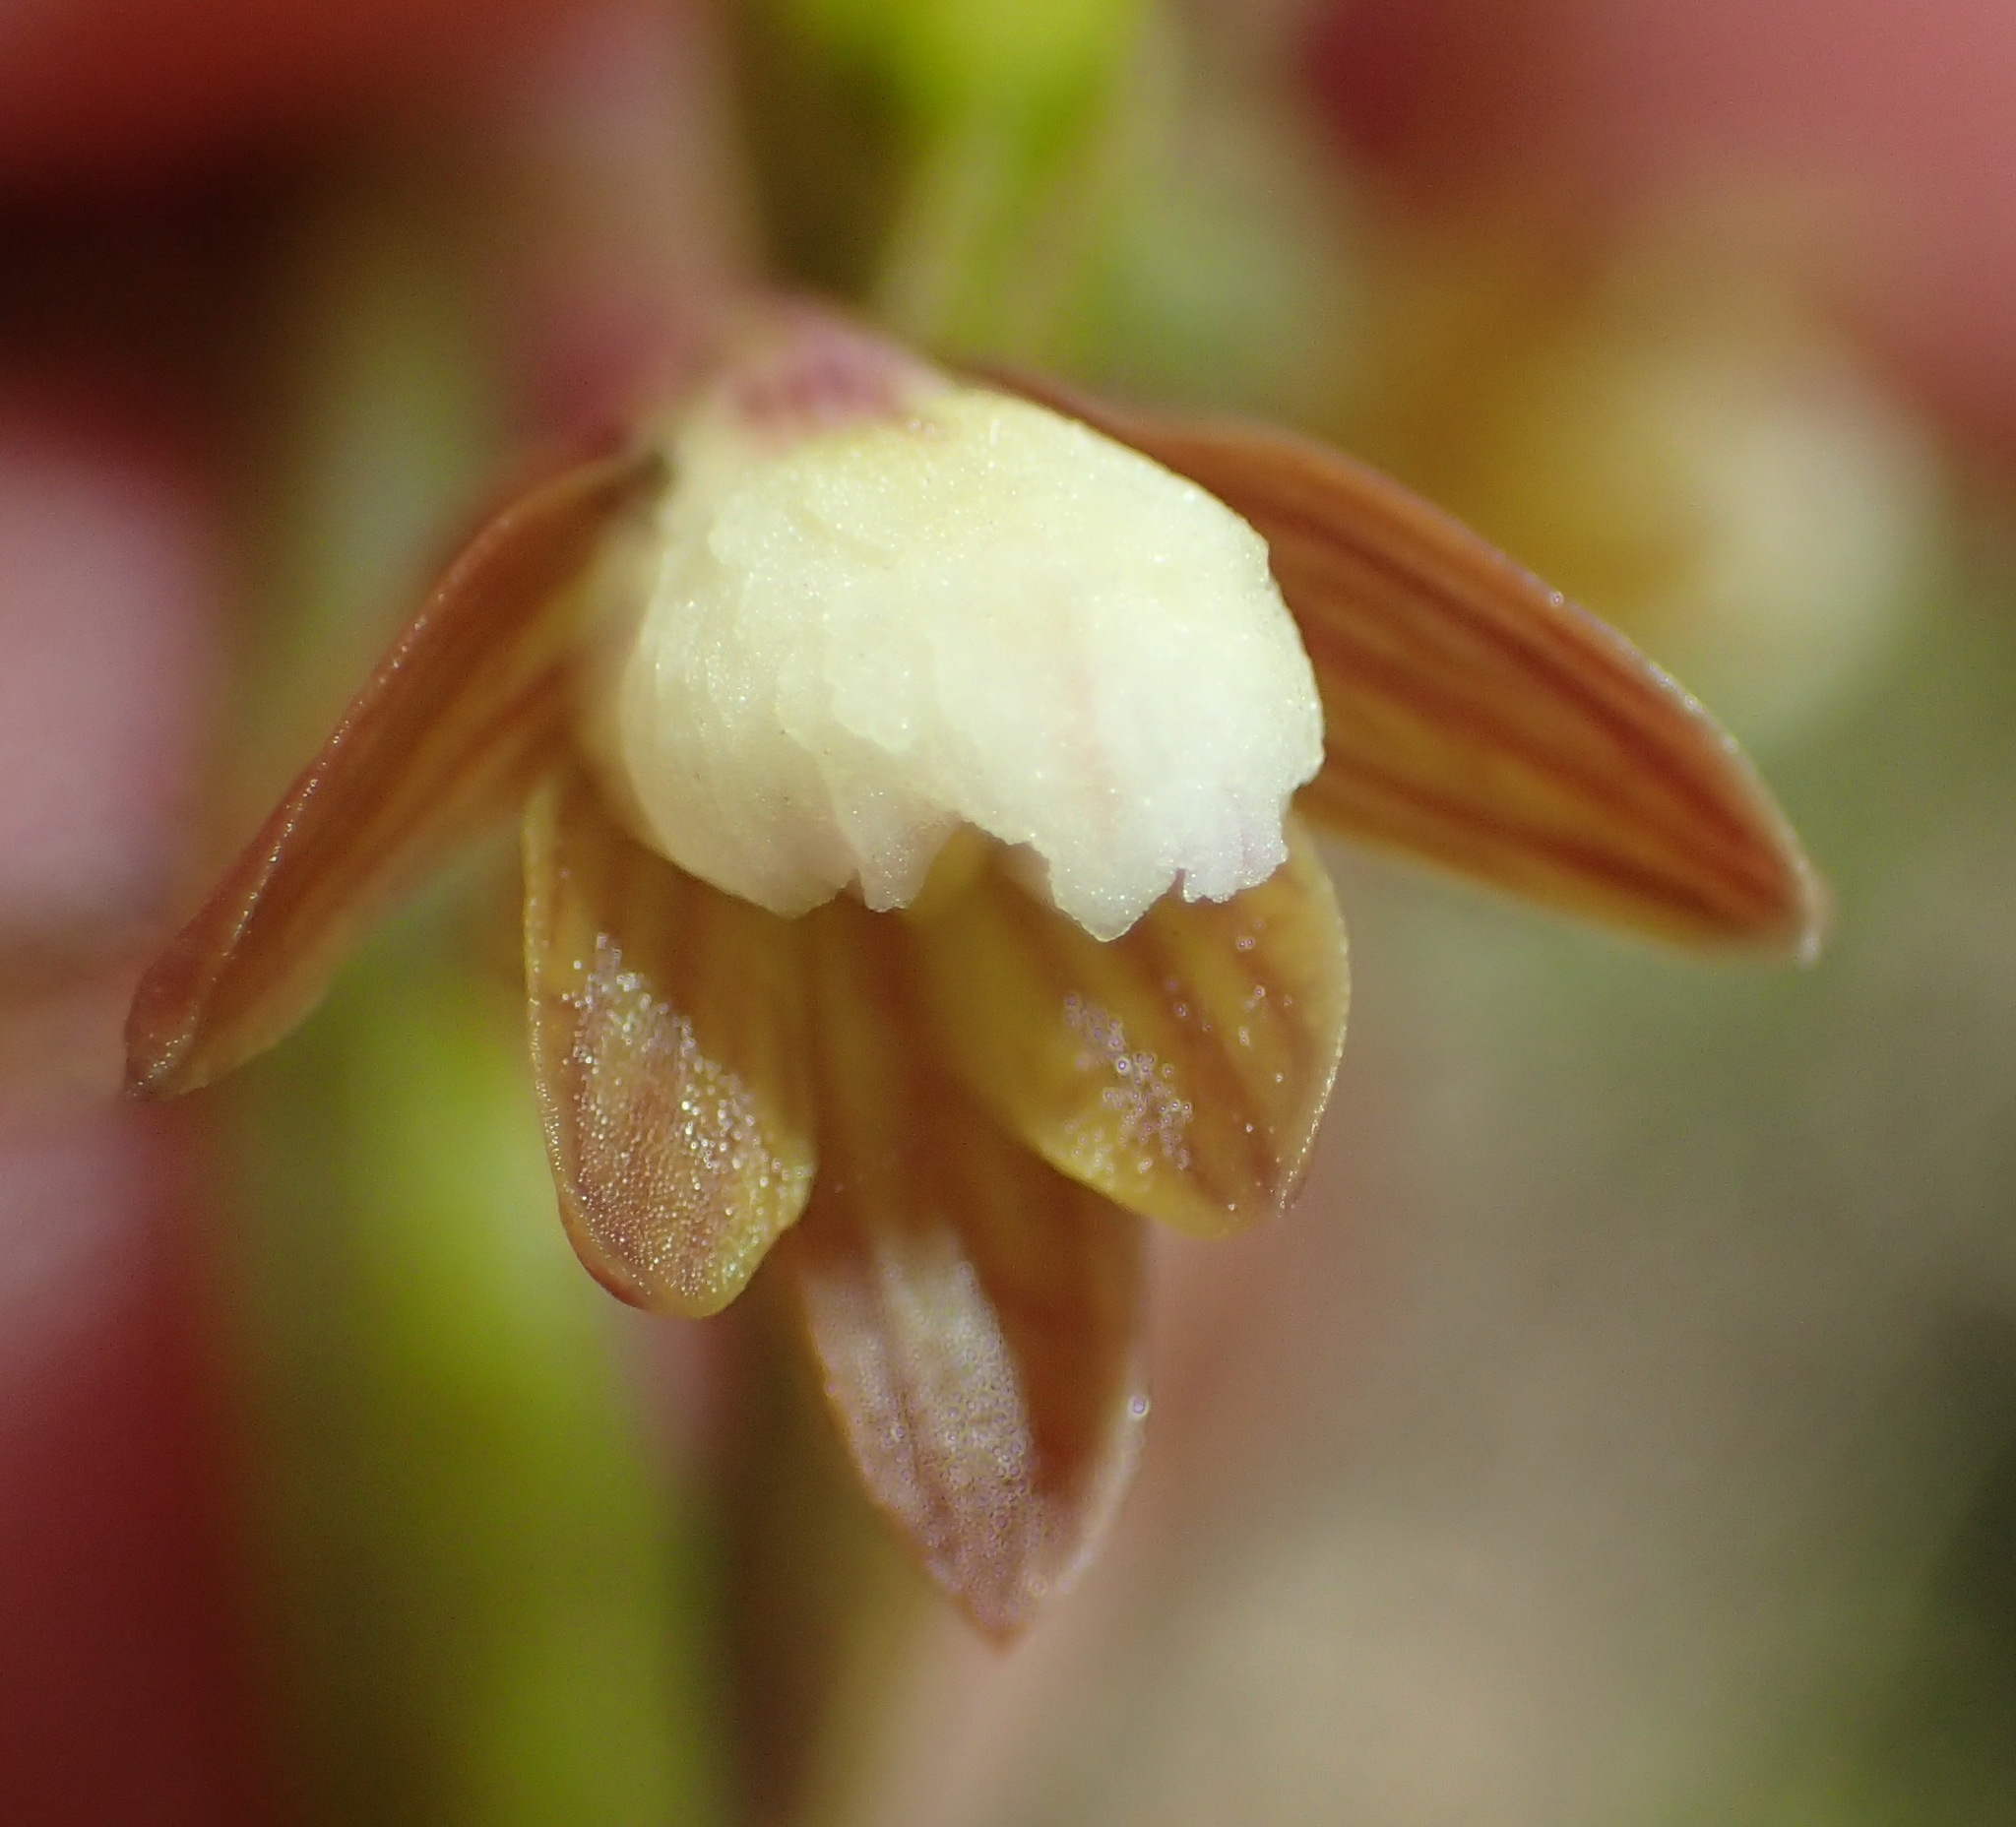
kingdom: Plantae
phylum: Tracheophyta
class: Liliopsida
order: Asparagales
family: Orchidaceae
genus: Eulophia
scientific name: Eulophia cochlearis
